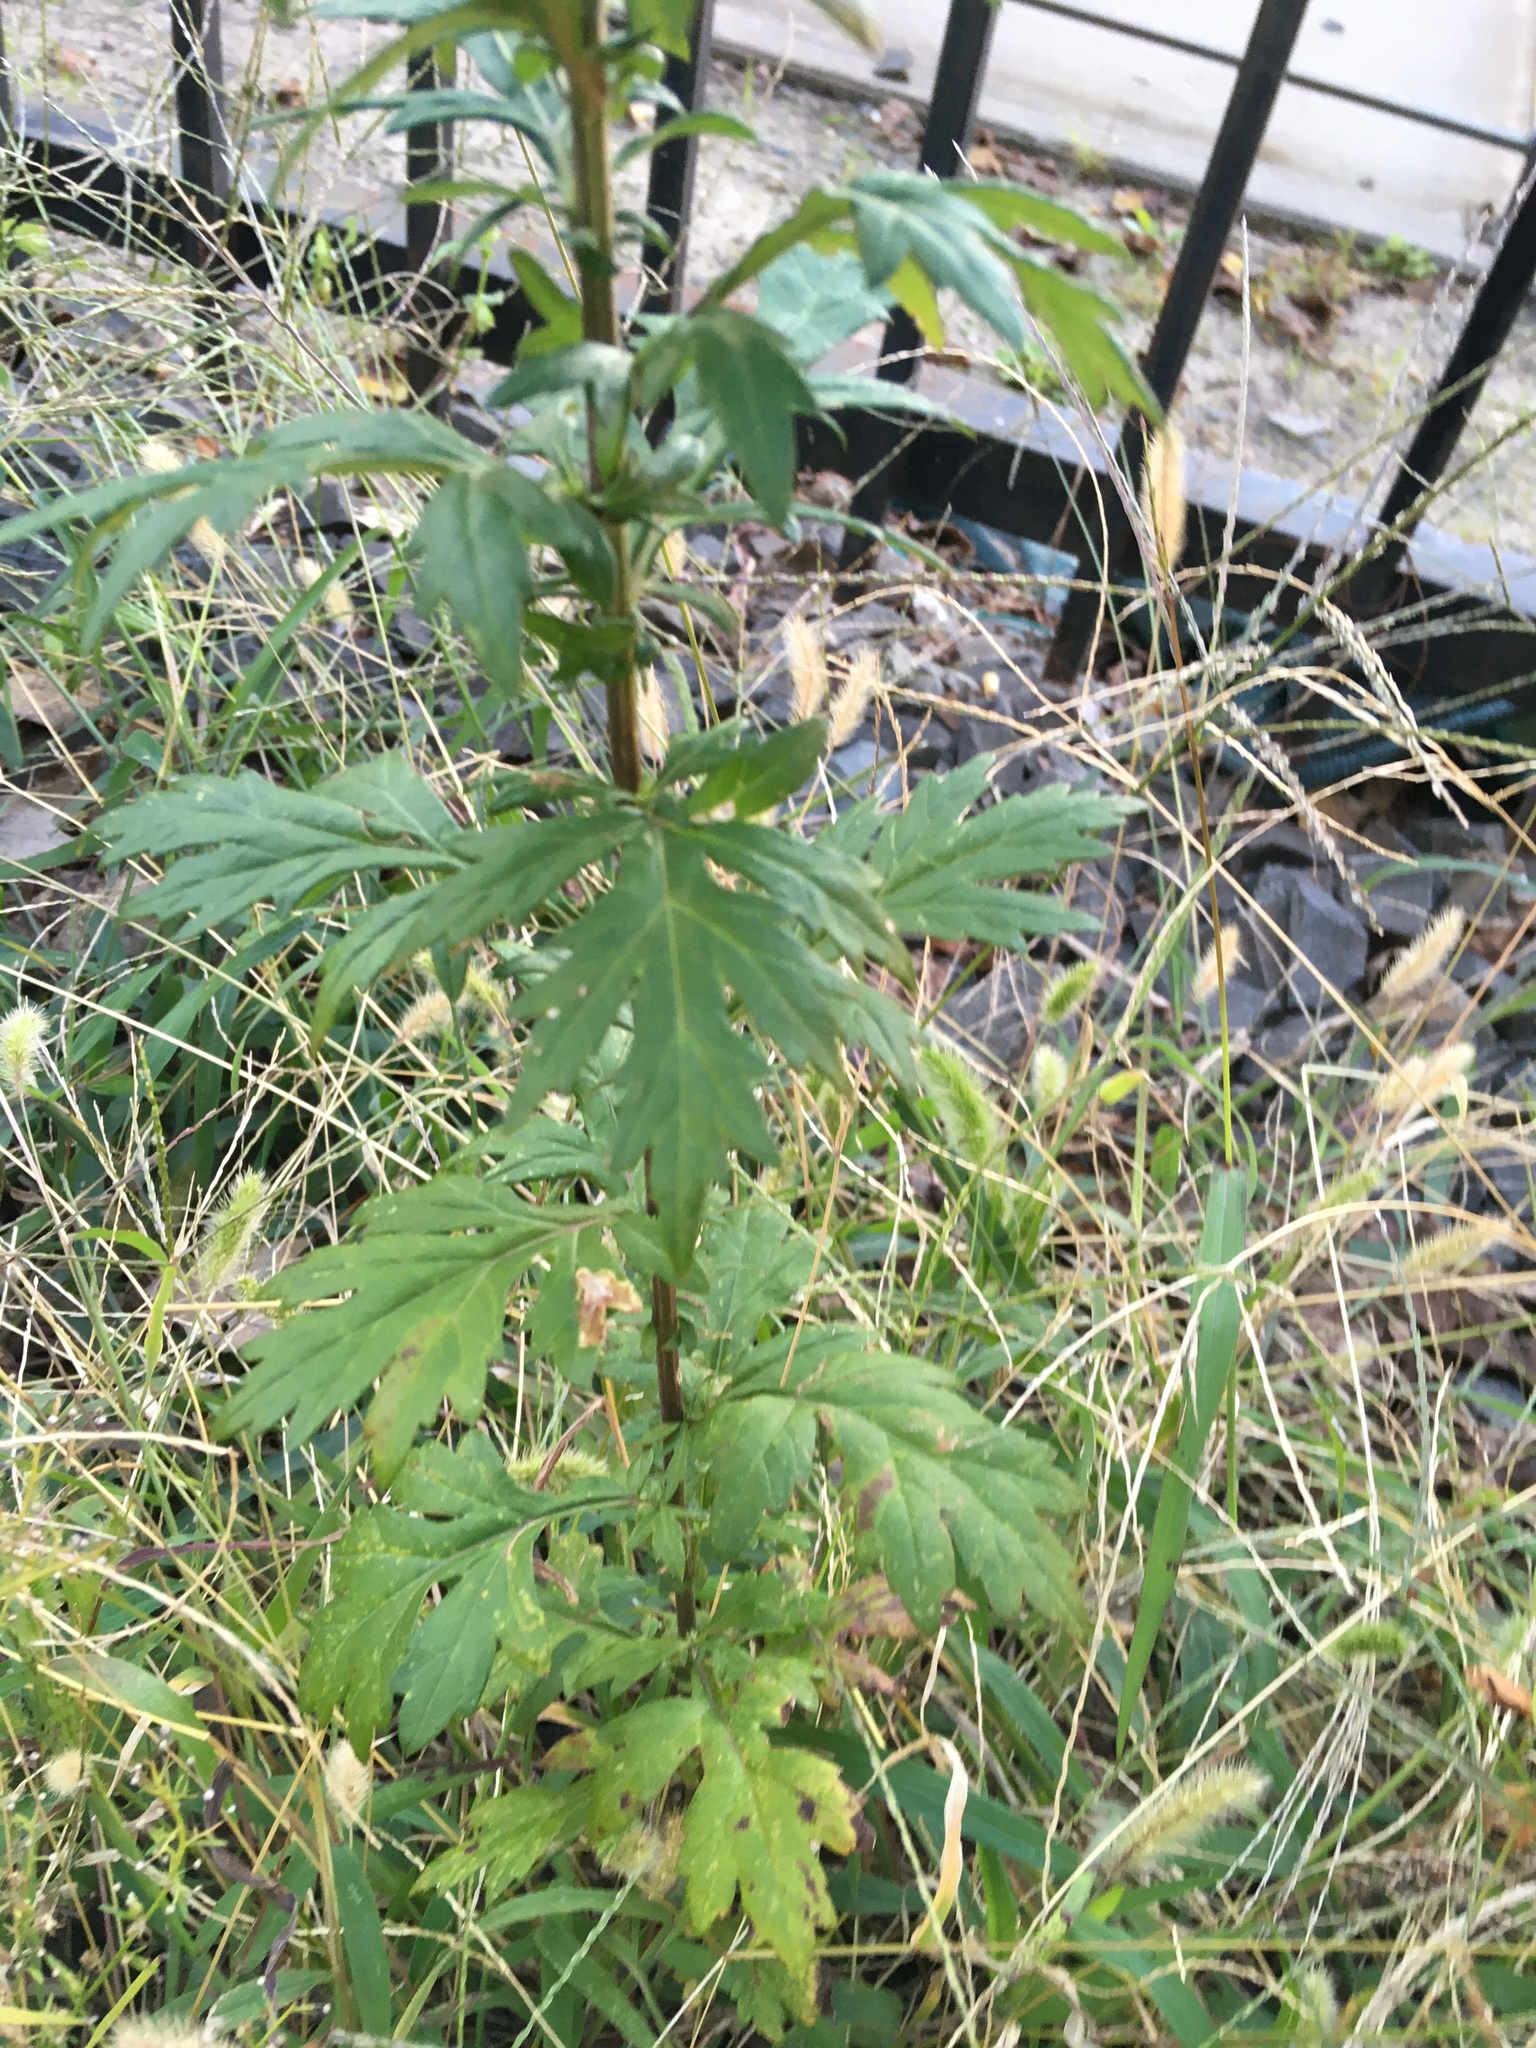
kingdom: Plantae
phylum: Tracheophyta
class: Magnoliopsida
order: Asterales
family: Asteraceae
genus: Artemisia
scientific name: Artemisia vulgaris
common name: Mugwort
